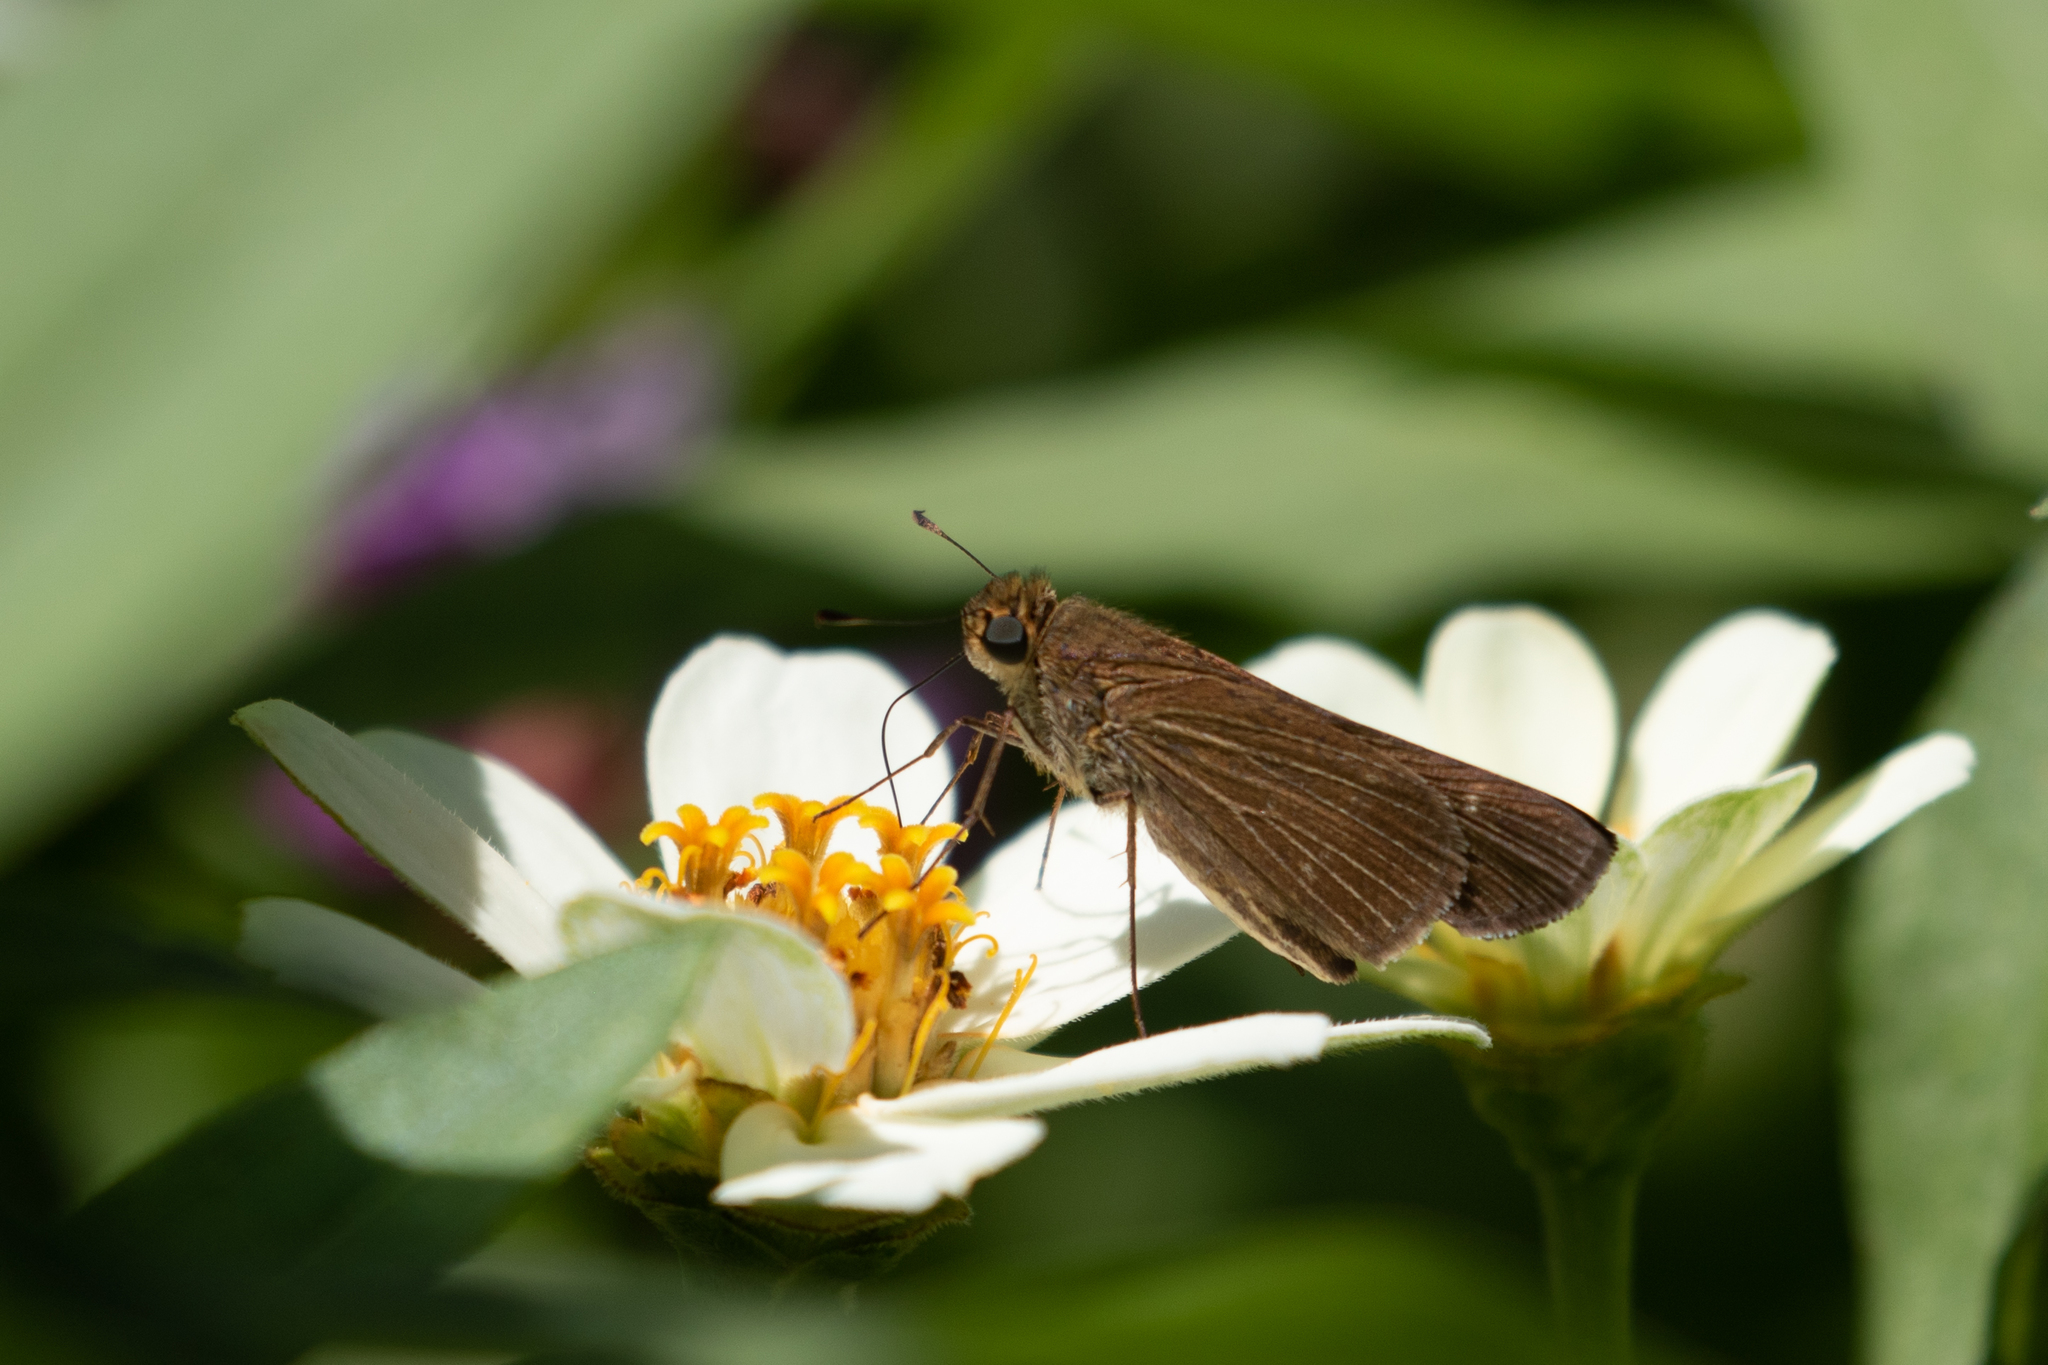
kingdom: Animalia
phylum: Arthropoda
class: Insecta
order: Lepidoptera
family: Hesperiidae
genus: Panoquina
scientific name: Panoquina ocola
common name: Ocola skipper
